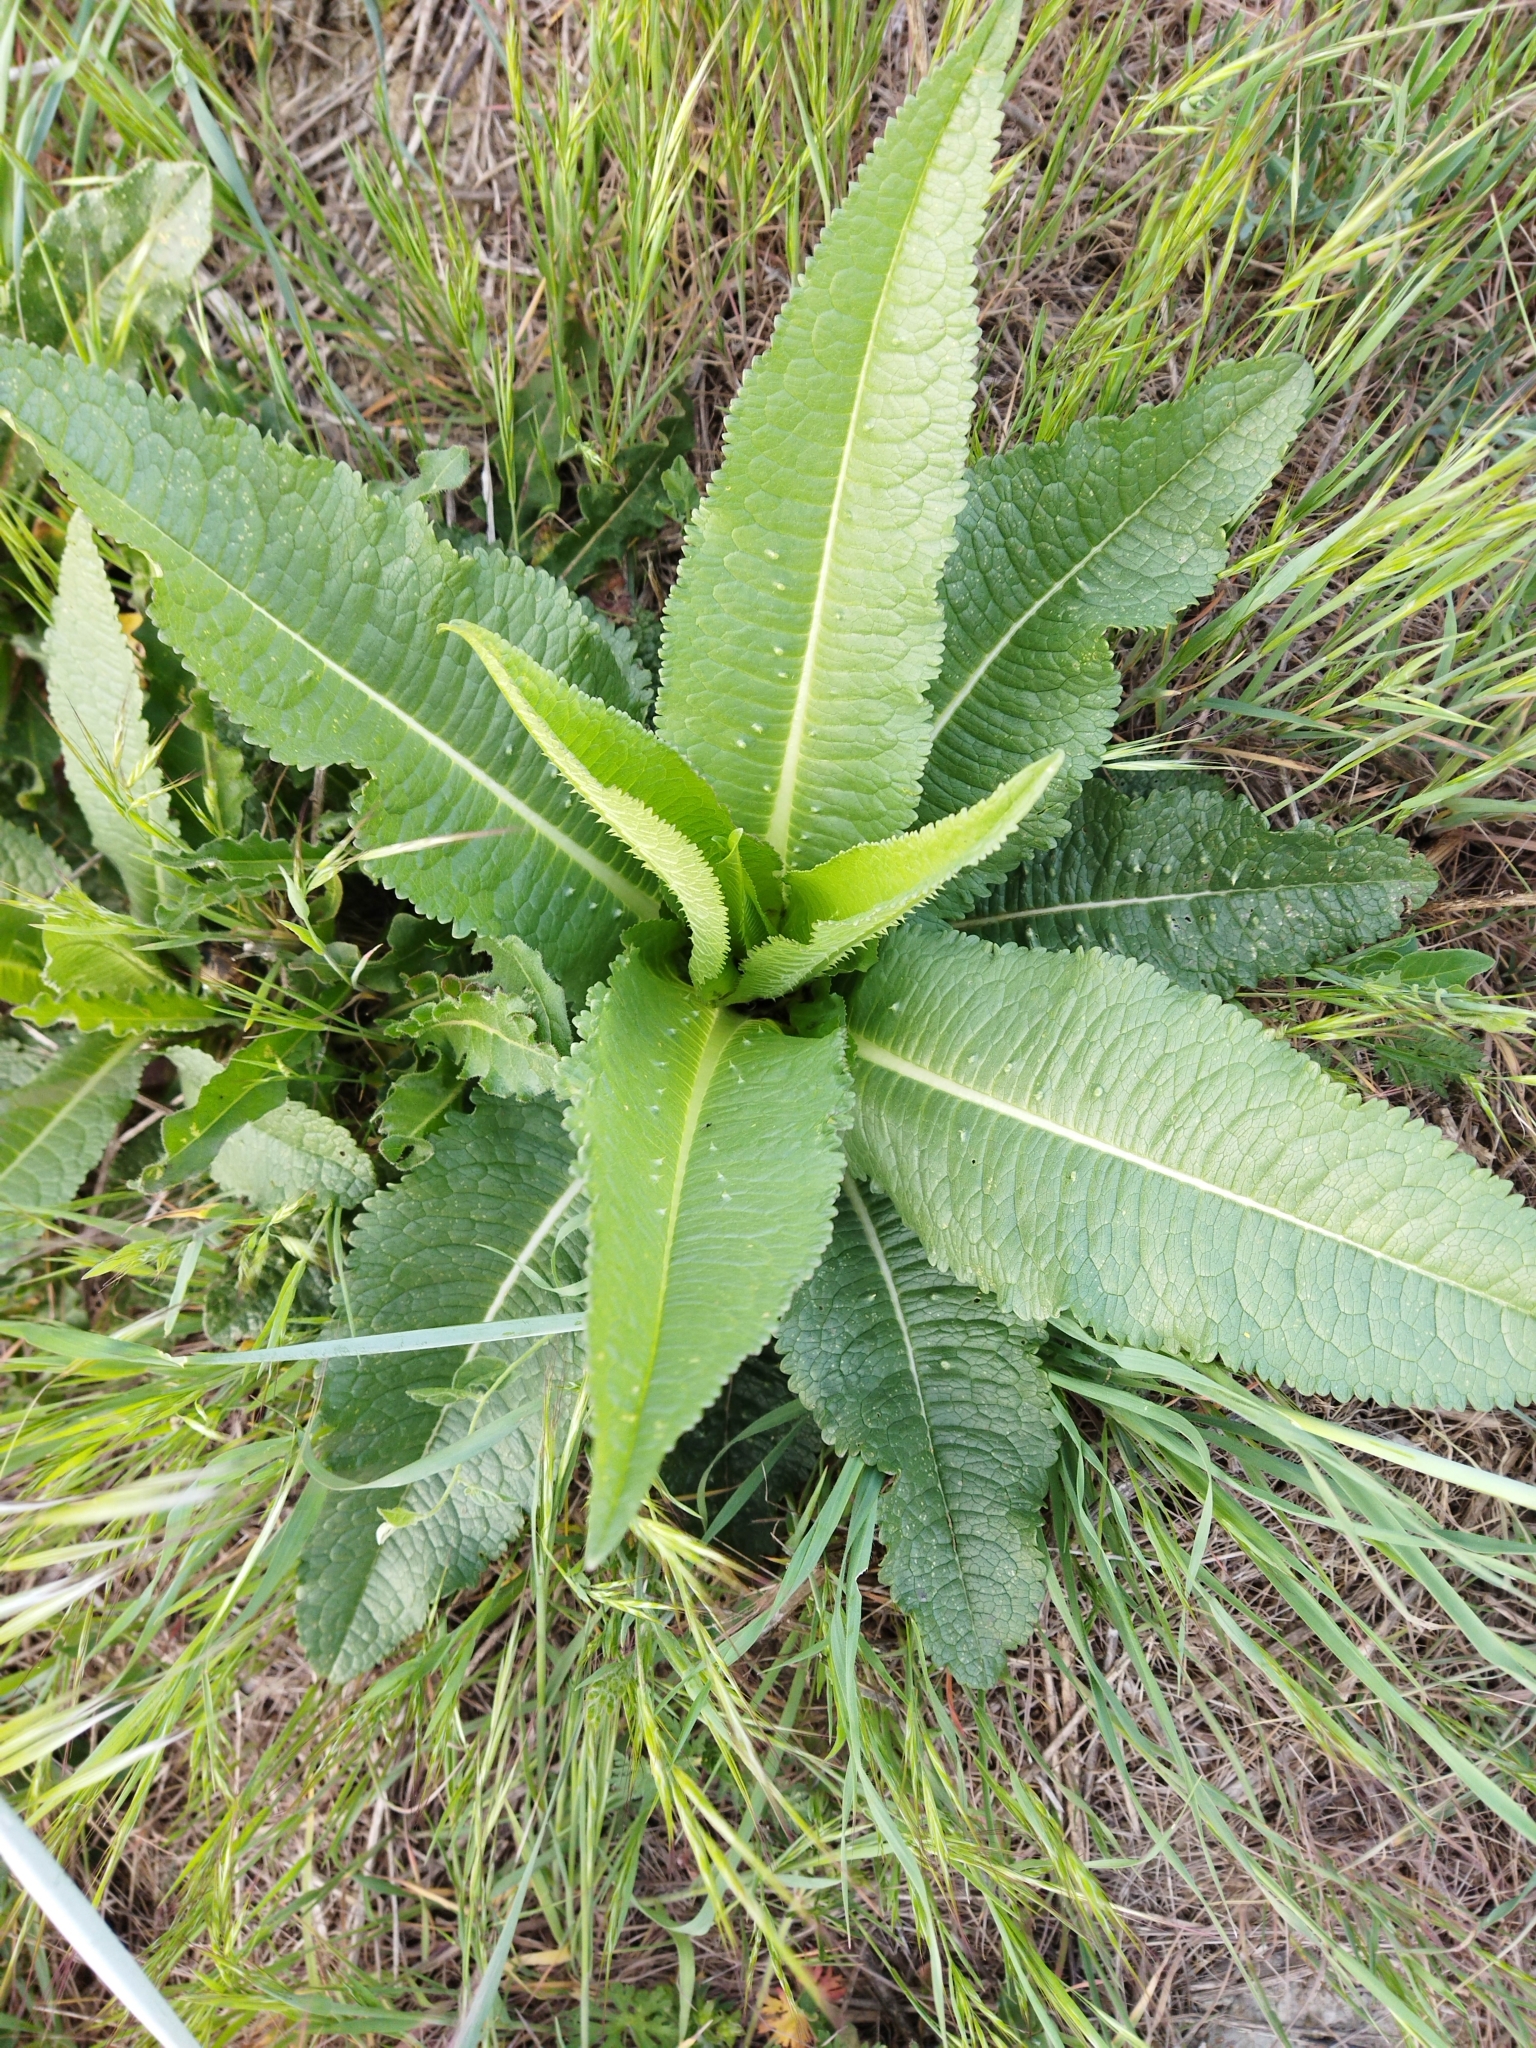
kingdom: Plantae
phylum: Tracheophyta
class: Magnoliopsida
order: Dipsacales
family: Caprifoliaceae
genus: Dipsacus
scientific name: Dipsacus fullonum
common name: Teasel
